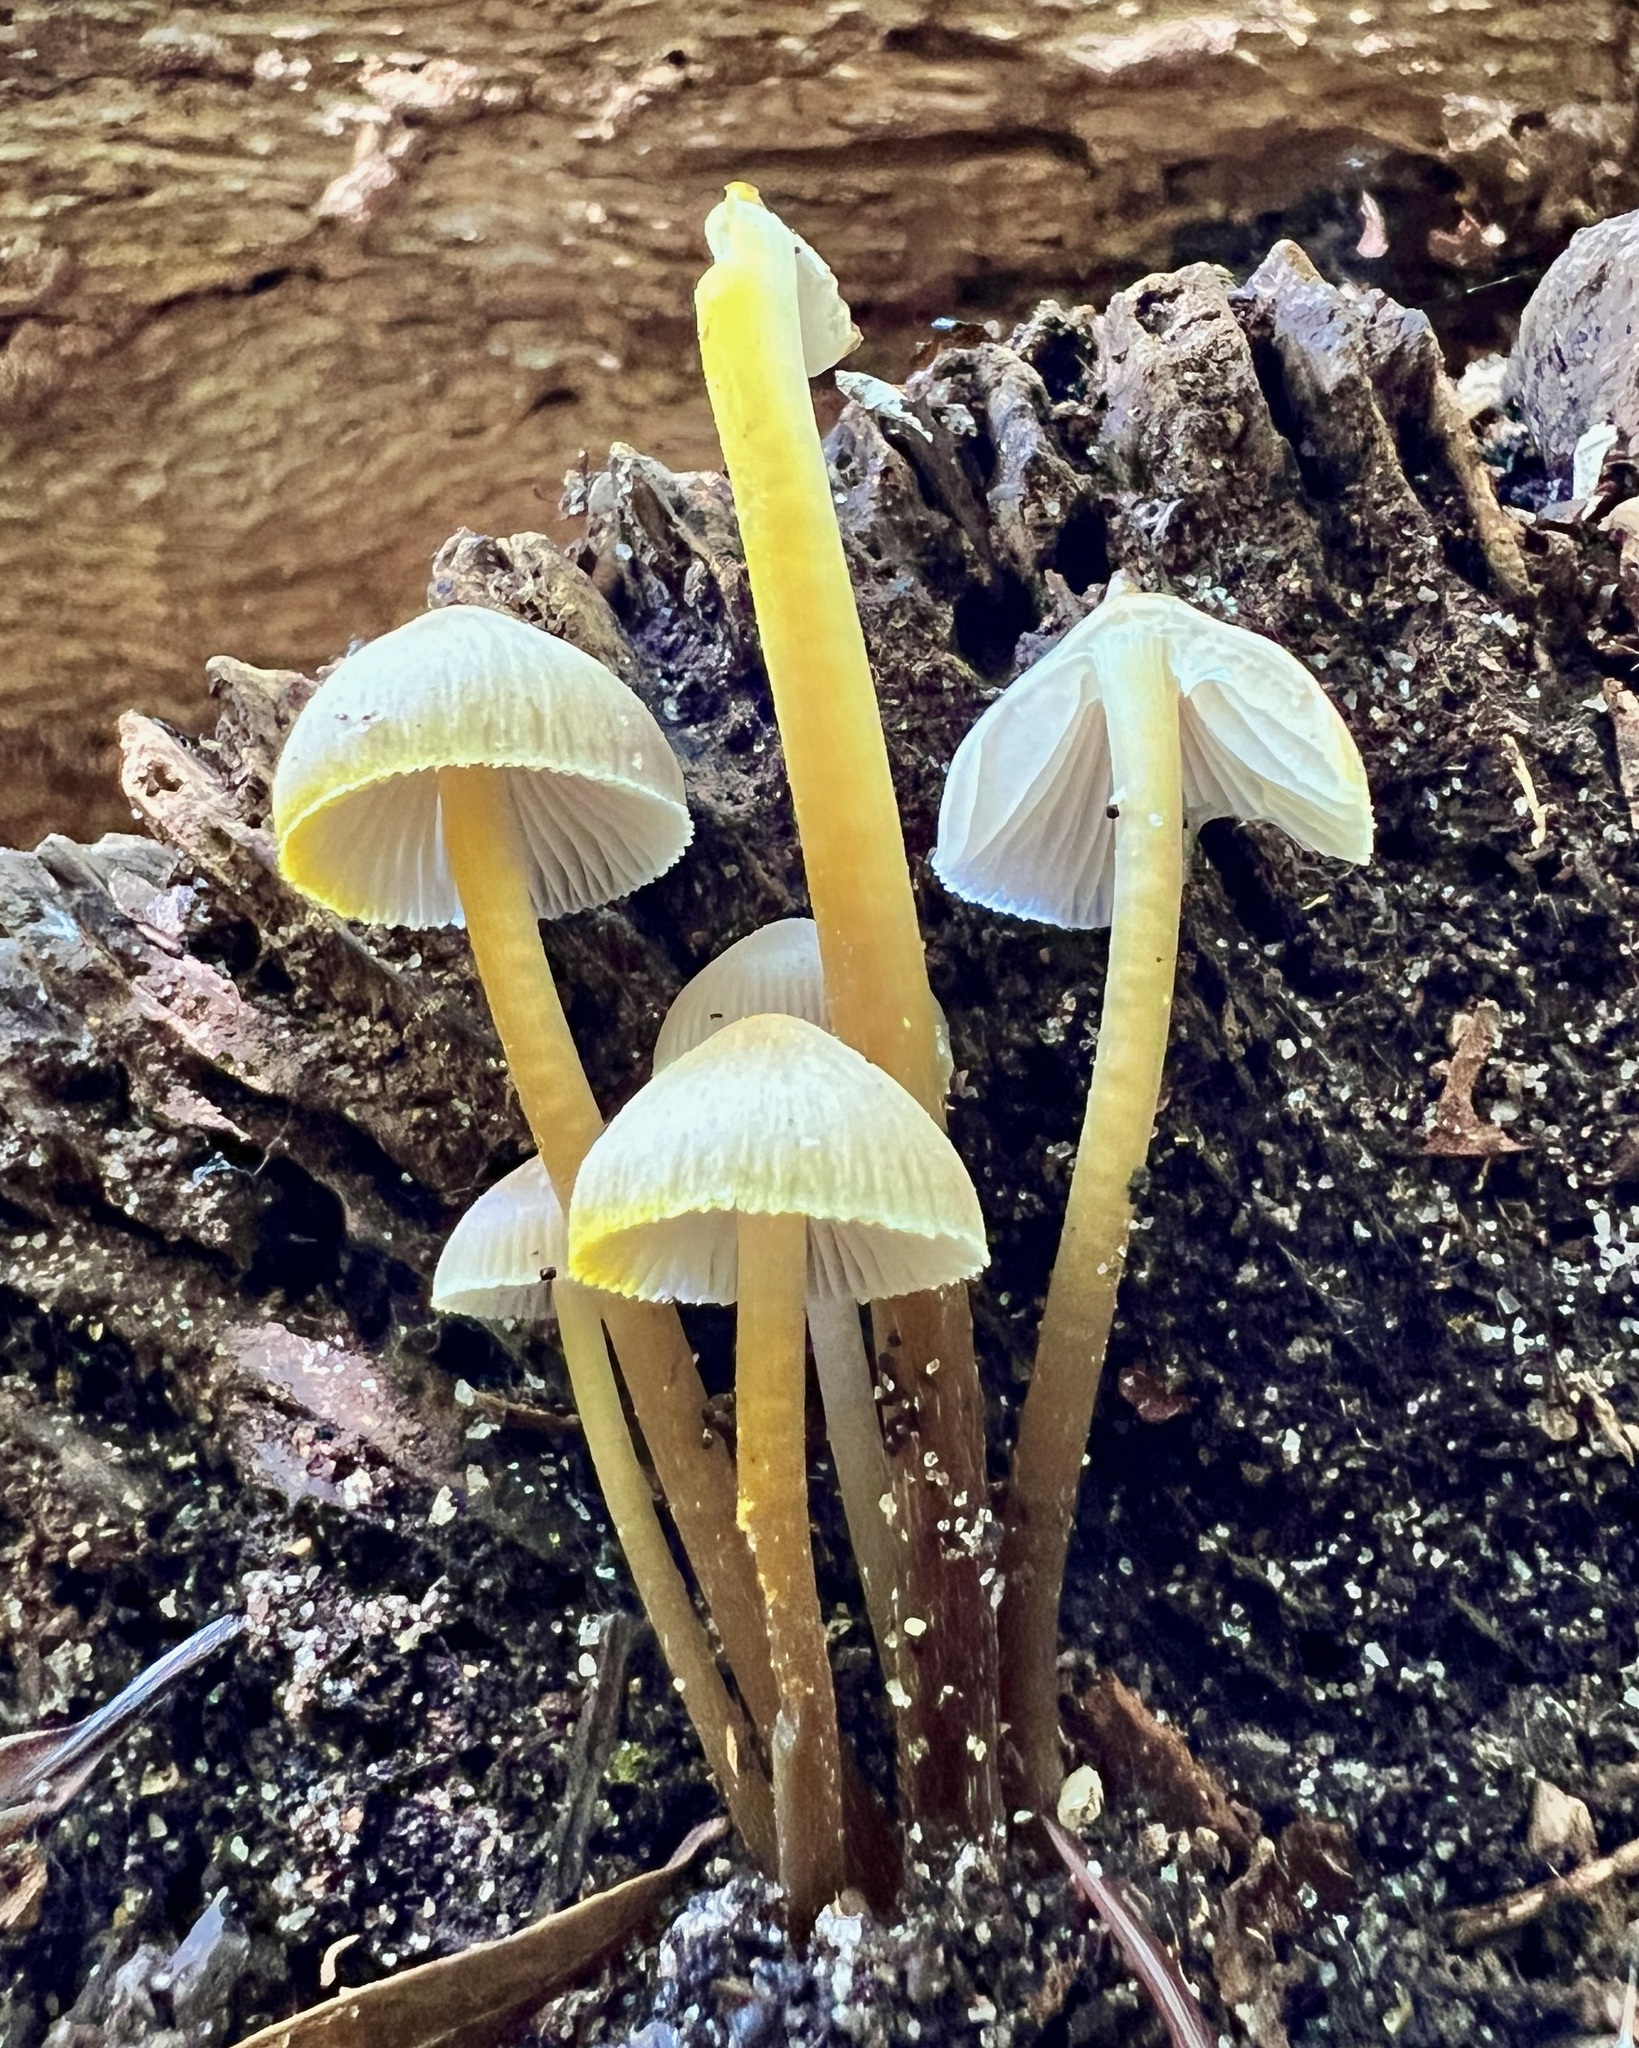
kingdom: Fungi
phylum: Basidiomycota
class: Agaricomycetes
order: Agaricales
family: Mycenaceae
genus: Mycena
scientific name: Mycena epipterygia
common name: Yellowleg bonnet
